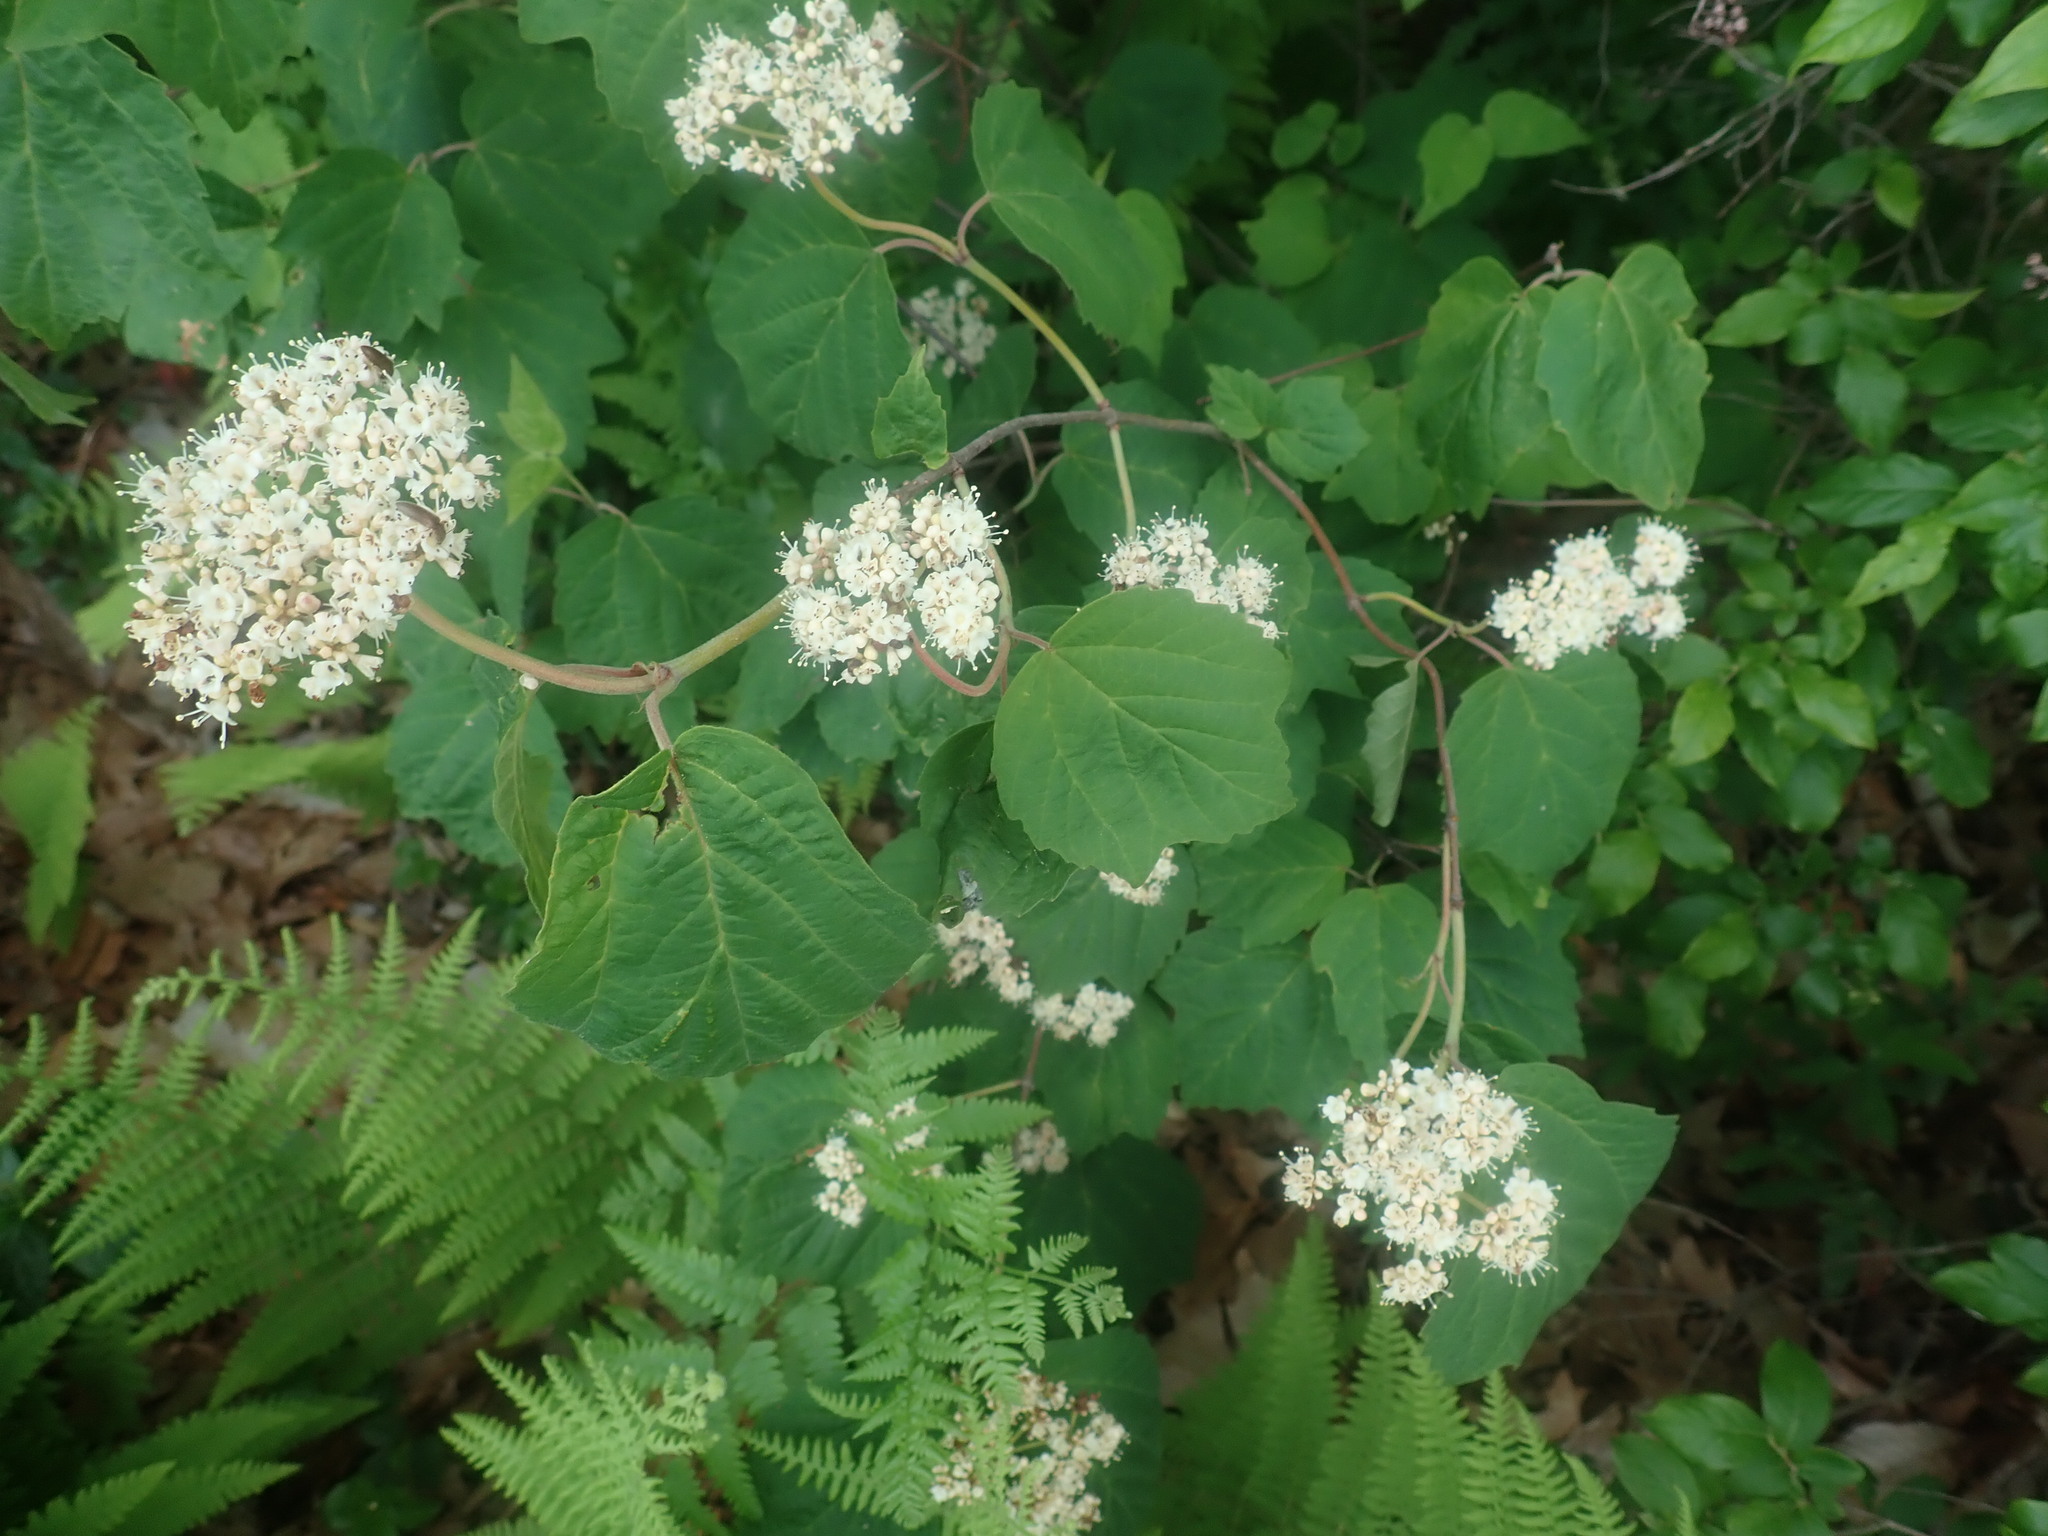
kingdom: Plantae
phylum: Tracheophyta
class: Magnoliopsida
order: Dipsacales
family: Viburnaceae
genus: Viburnum
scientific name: Viburnum acerifolium
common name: Dockmackie
